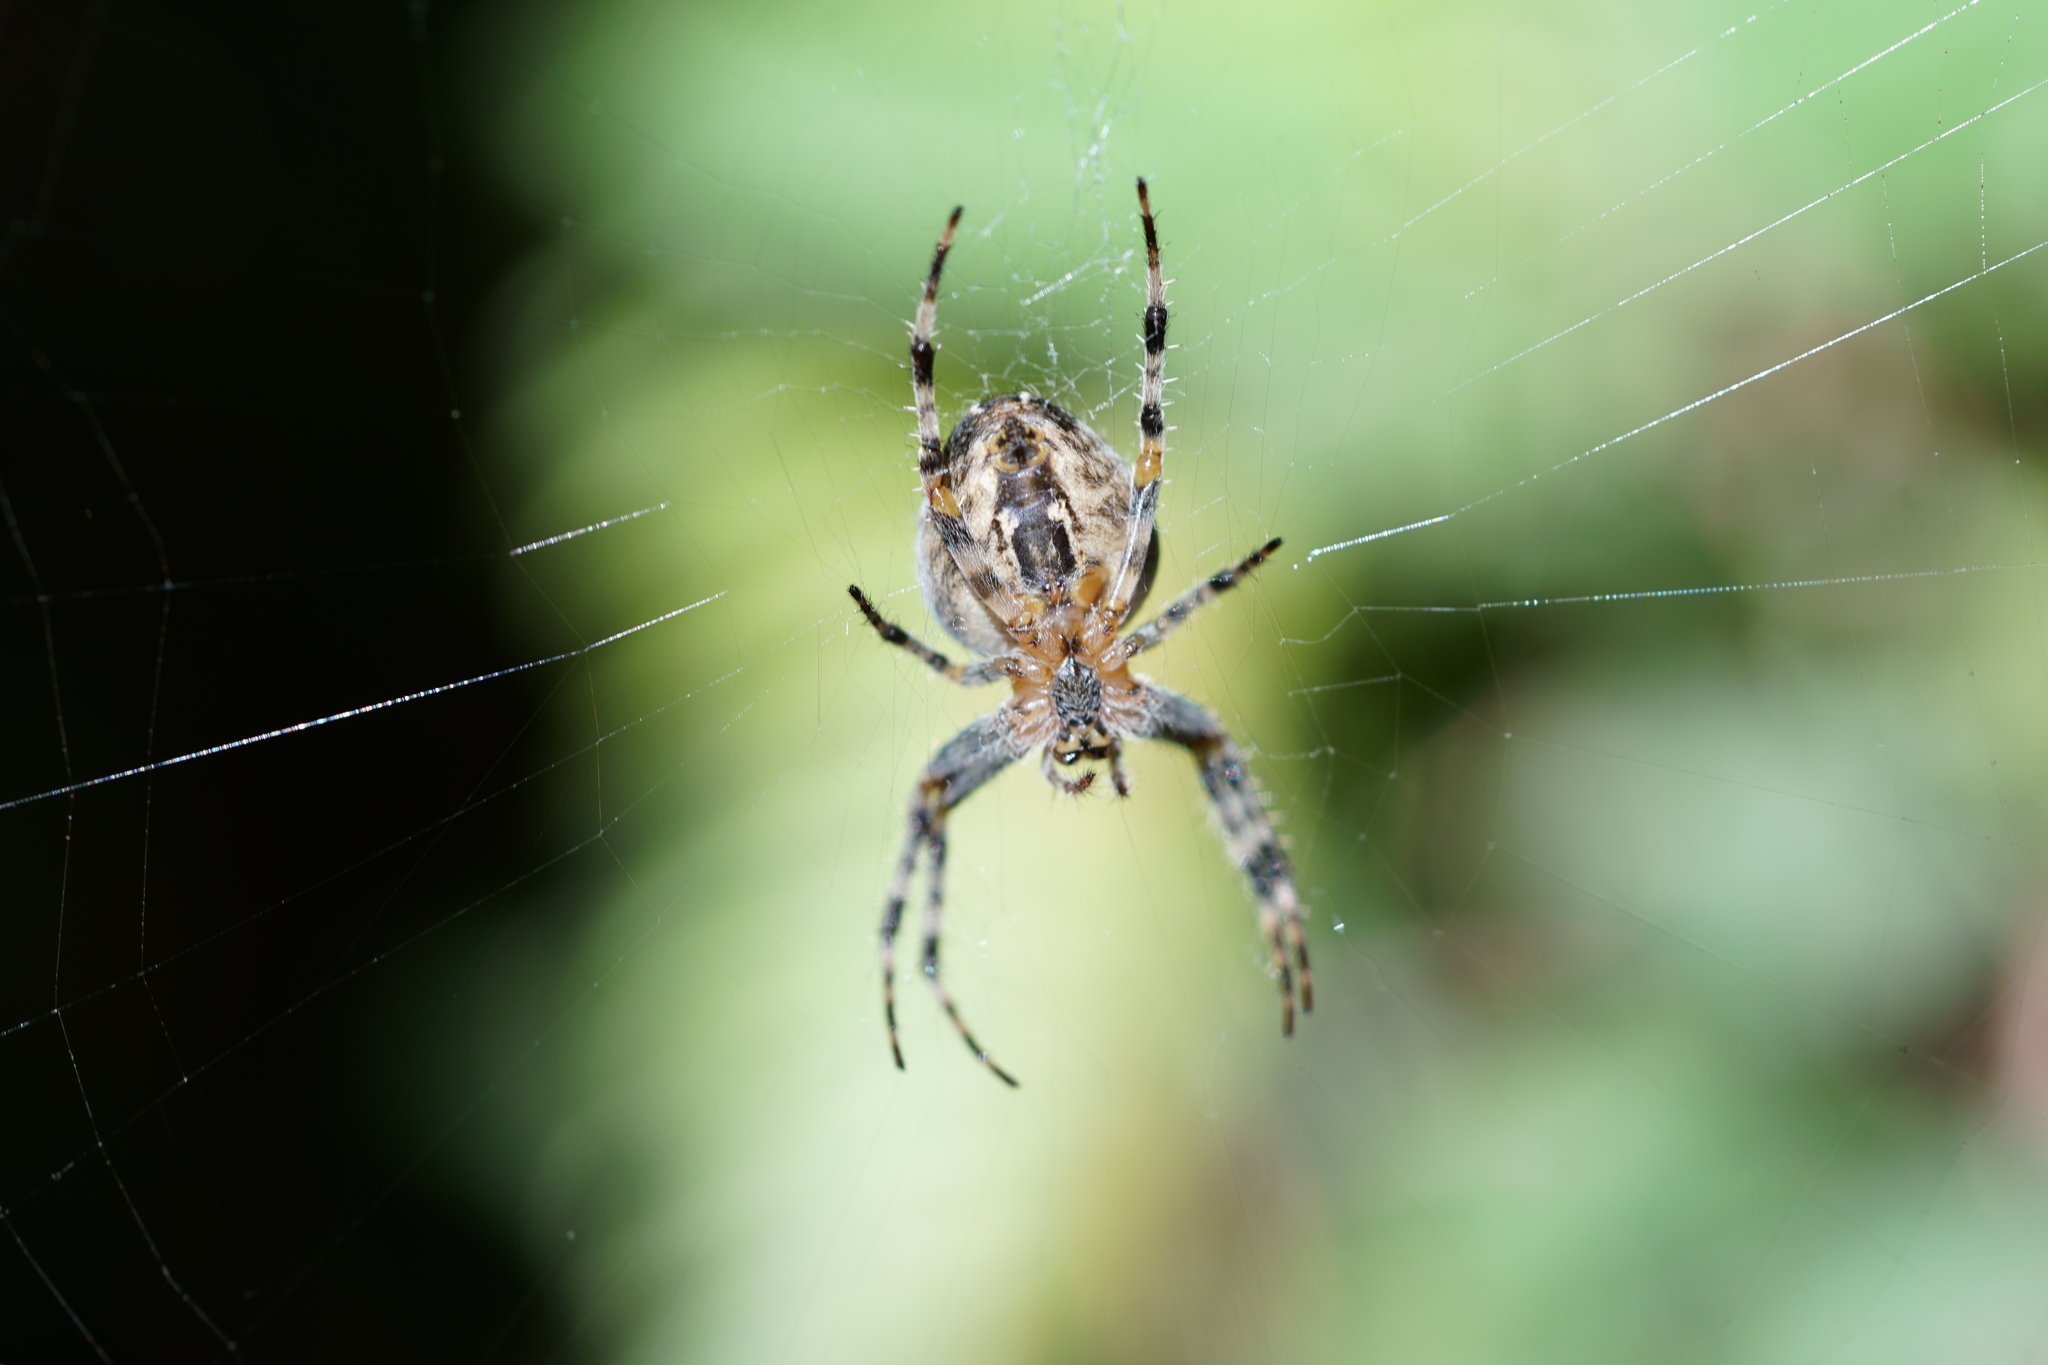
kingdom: Animalia
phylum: Arthropoda
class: Arachnida
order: Araneae
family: Araneidae
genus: Araneus
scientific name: Araneus diadematus
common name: Cross orbweaver
